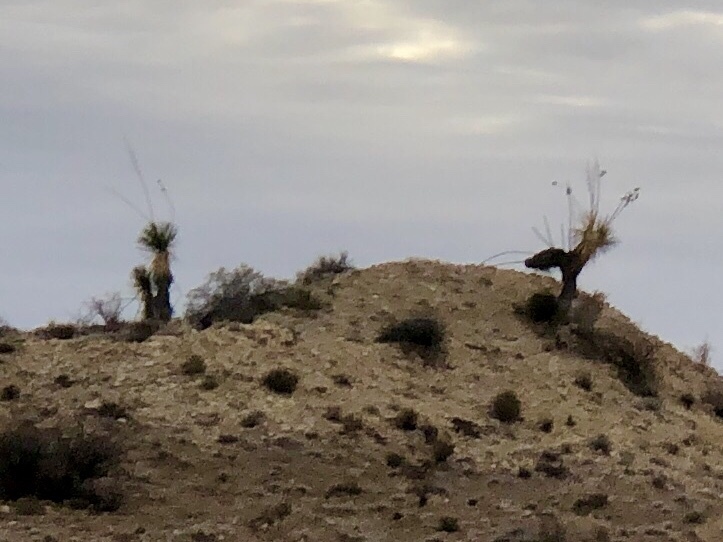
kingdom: Plantae
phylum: Tracheophyta
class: Liliopsida
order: Asparagales
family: Asparagaceae
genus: Yucca
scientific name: Yucca elata
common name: Palmella
